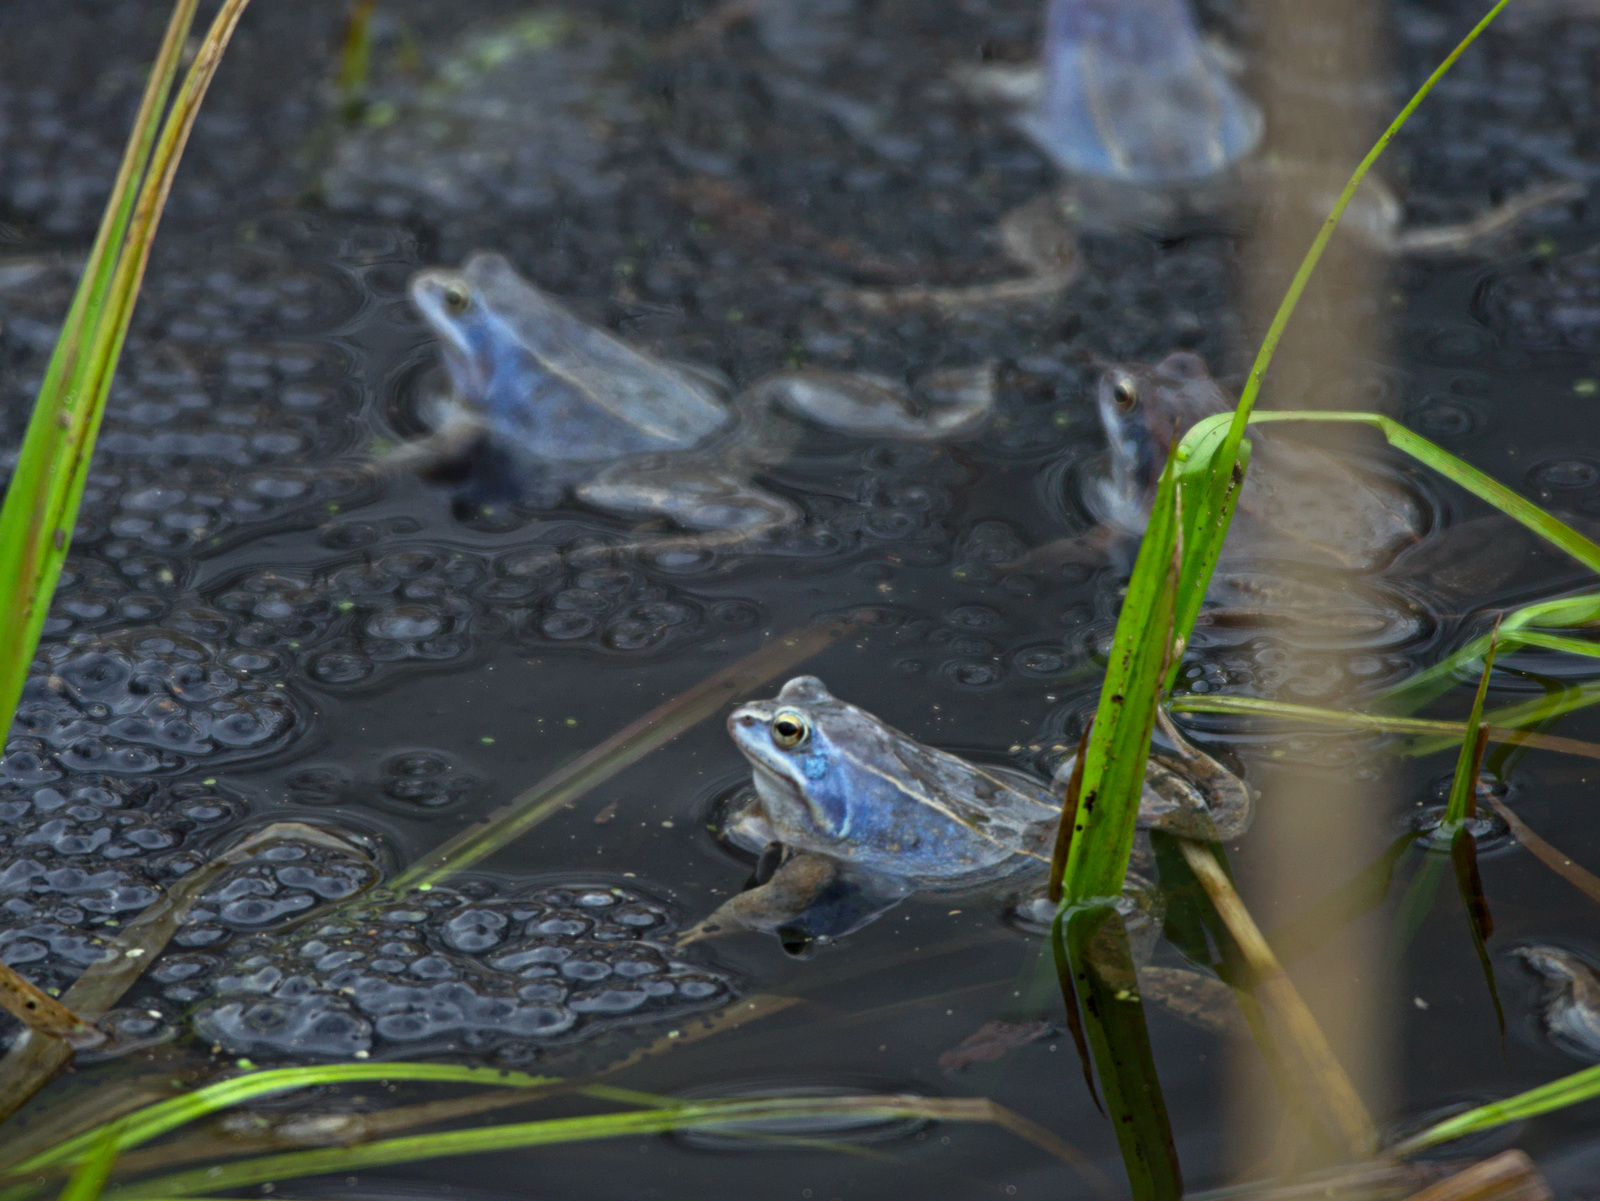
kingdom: Animalia
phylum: Chordata
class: Amphibia
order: Anura
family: Ranidae
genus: Rana
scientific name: Rana arvalis
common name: Moor frog
